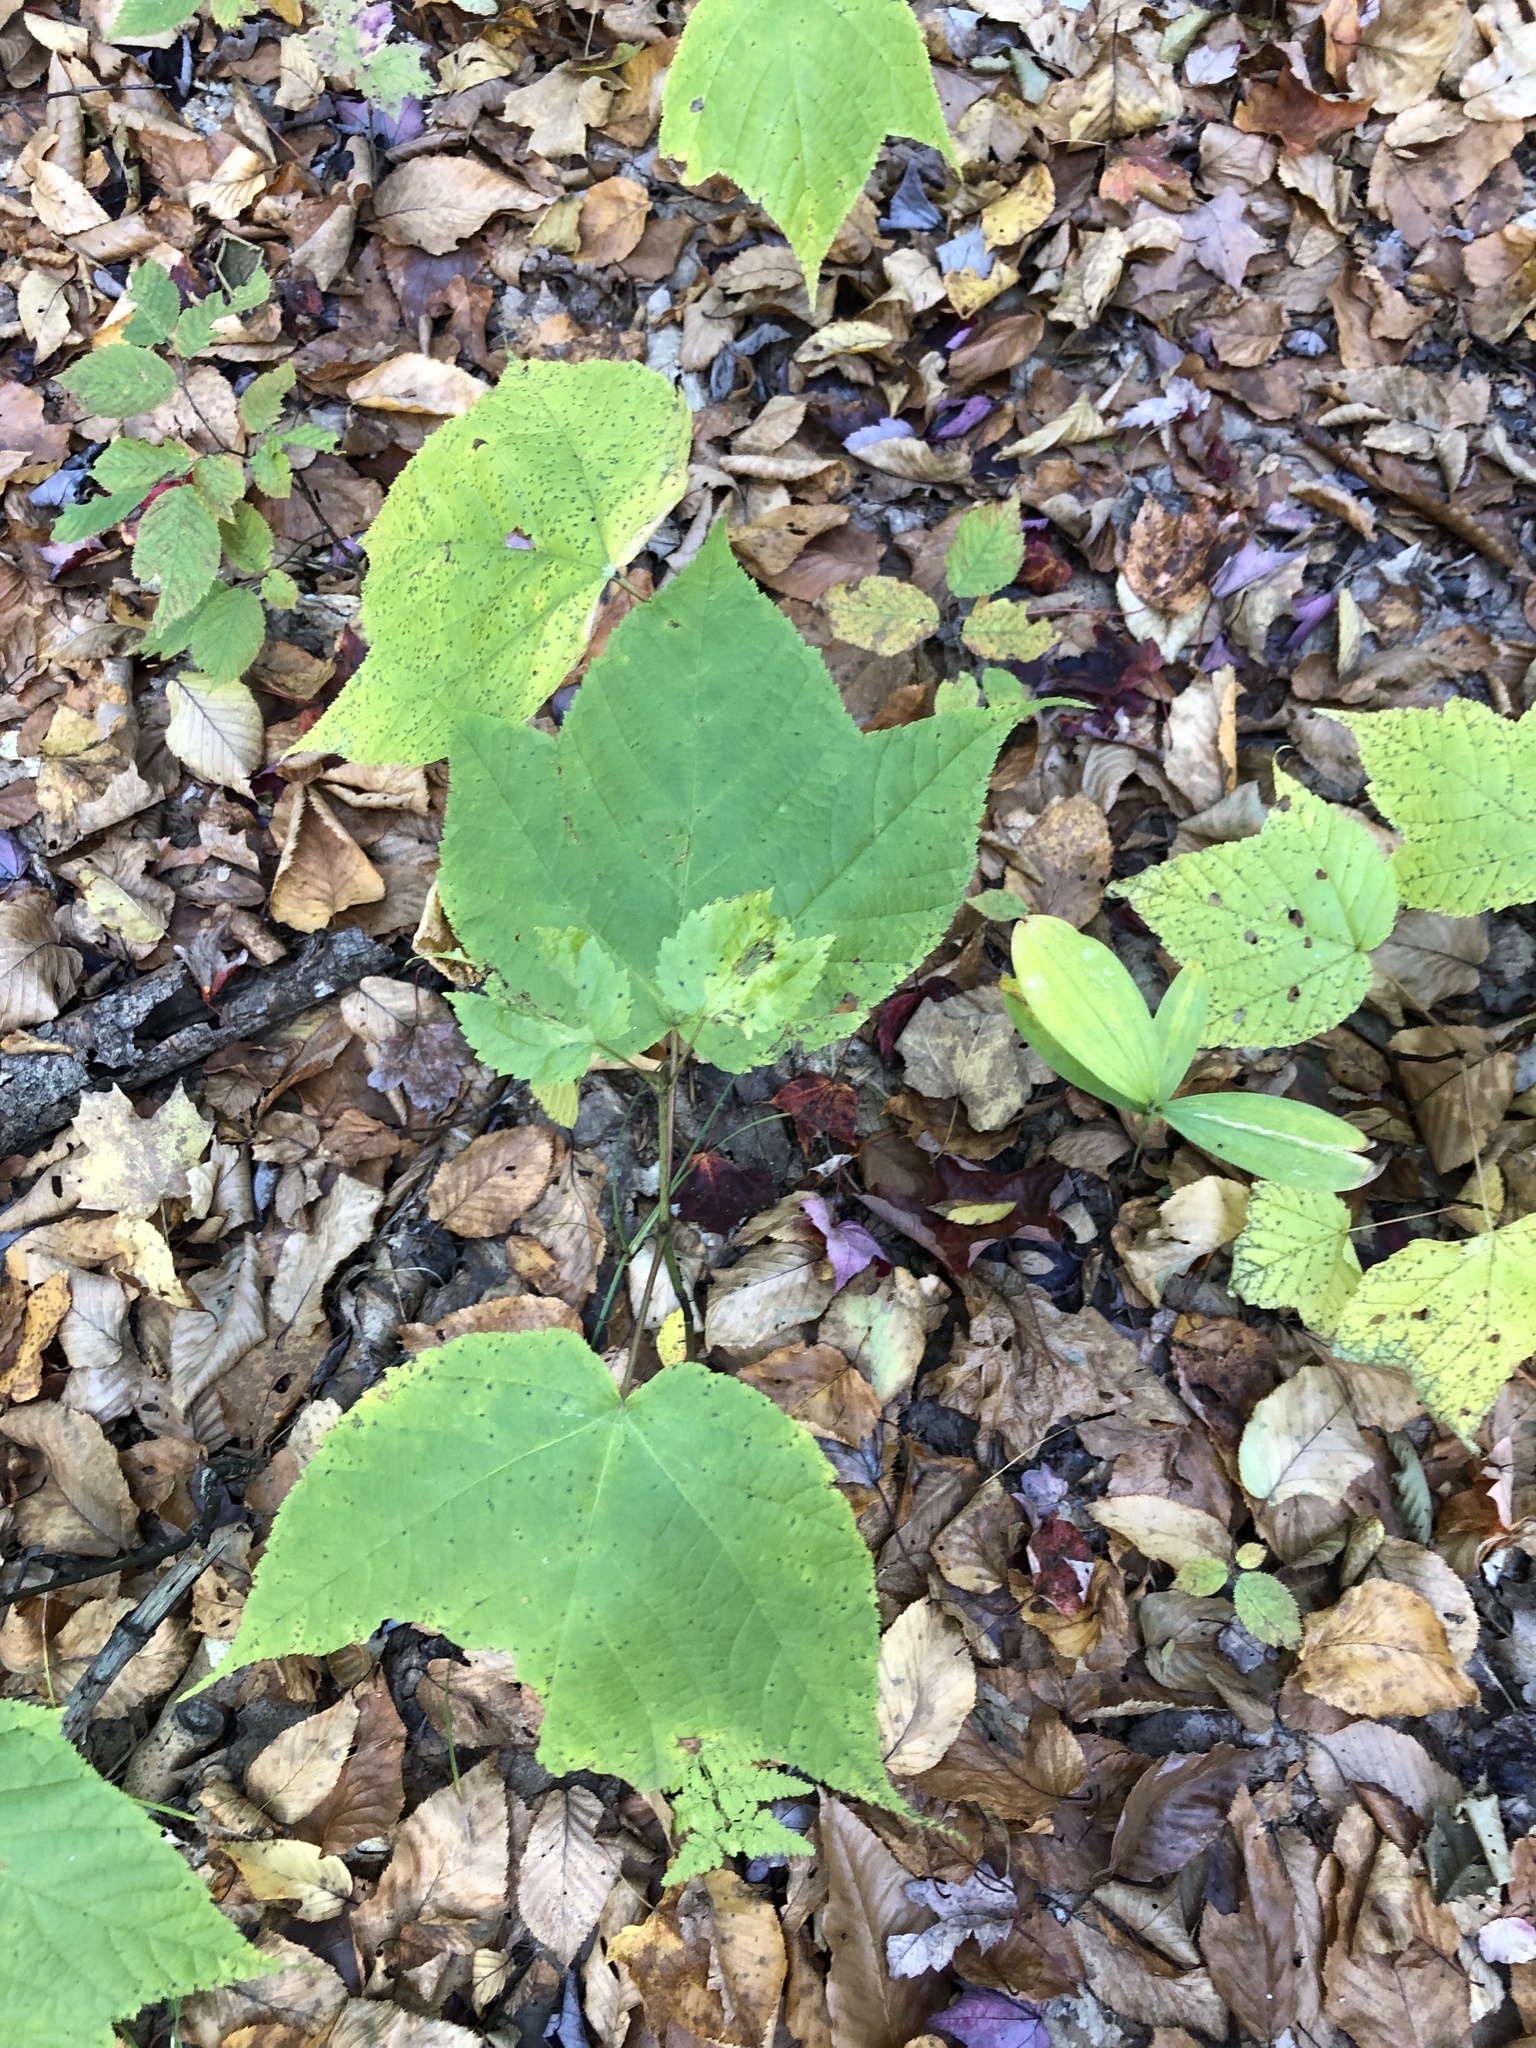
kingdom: Plantae
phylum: Tracheophyta
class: Magnoliopsida
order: Sapindales
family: Sapindaceae
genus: Acer
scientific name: Acer pensylvanicum
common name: Moosewood
